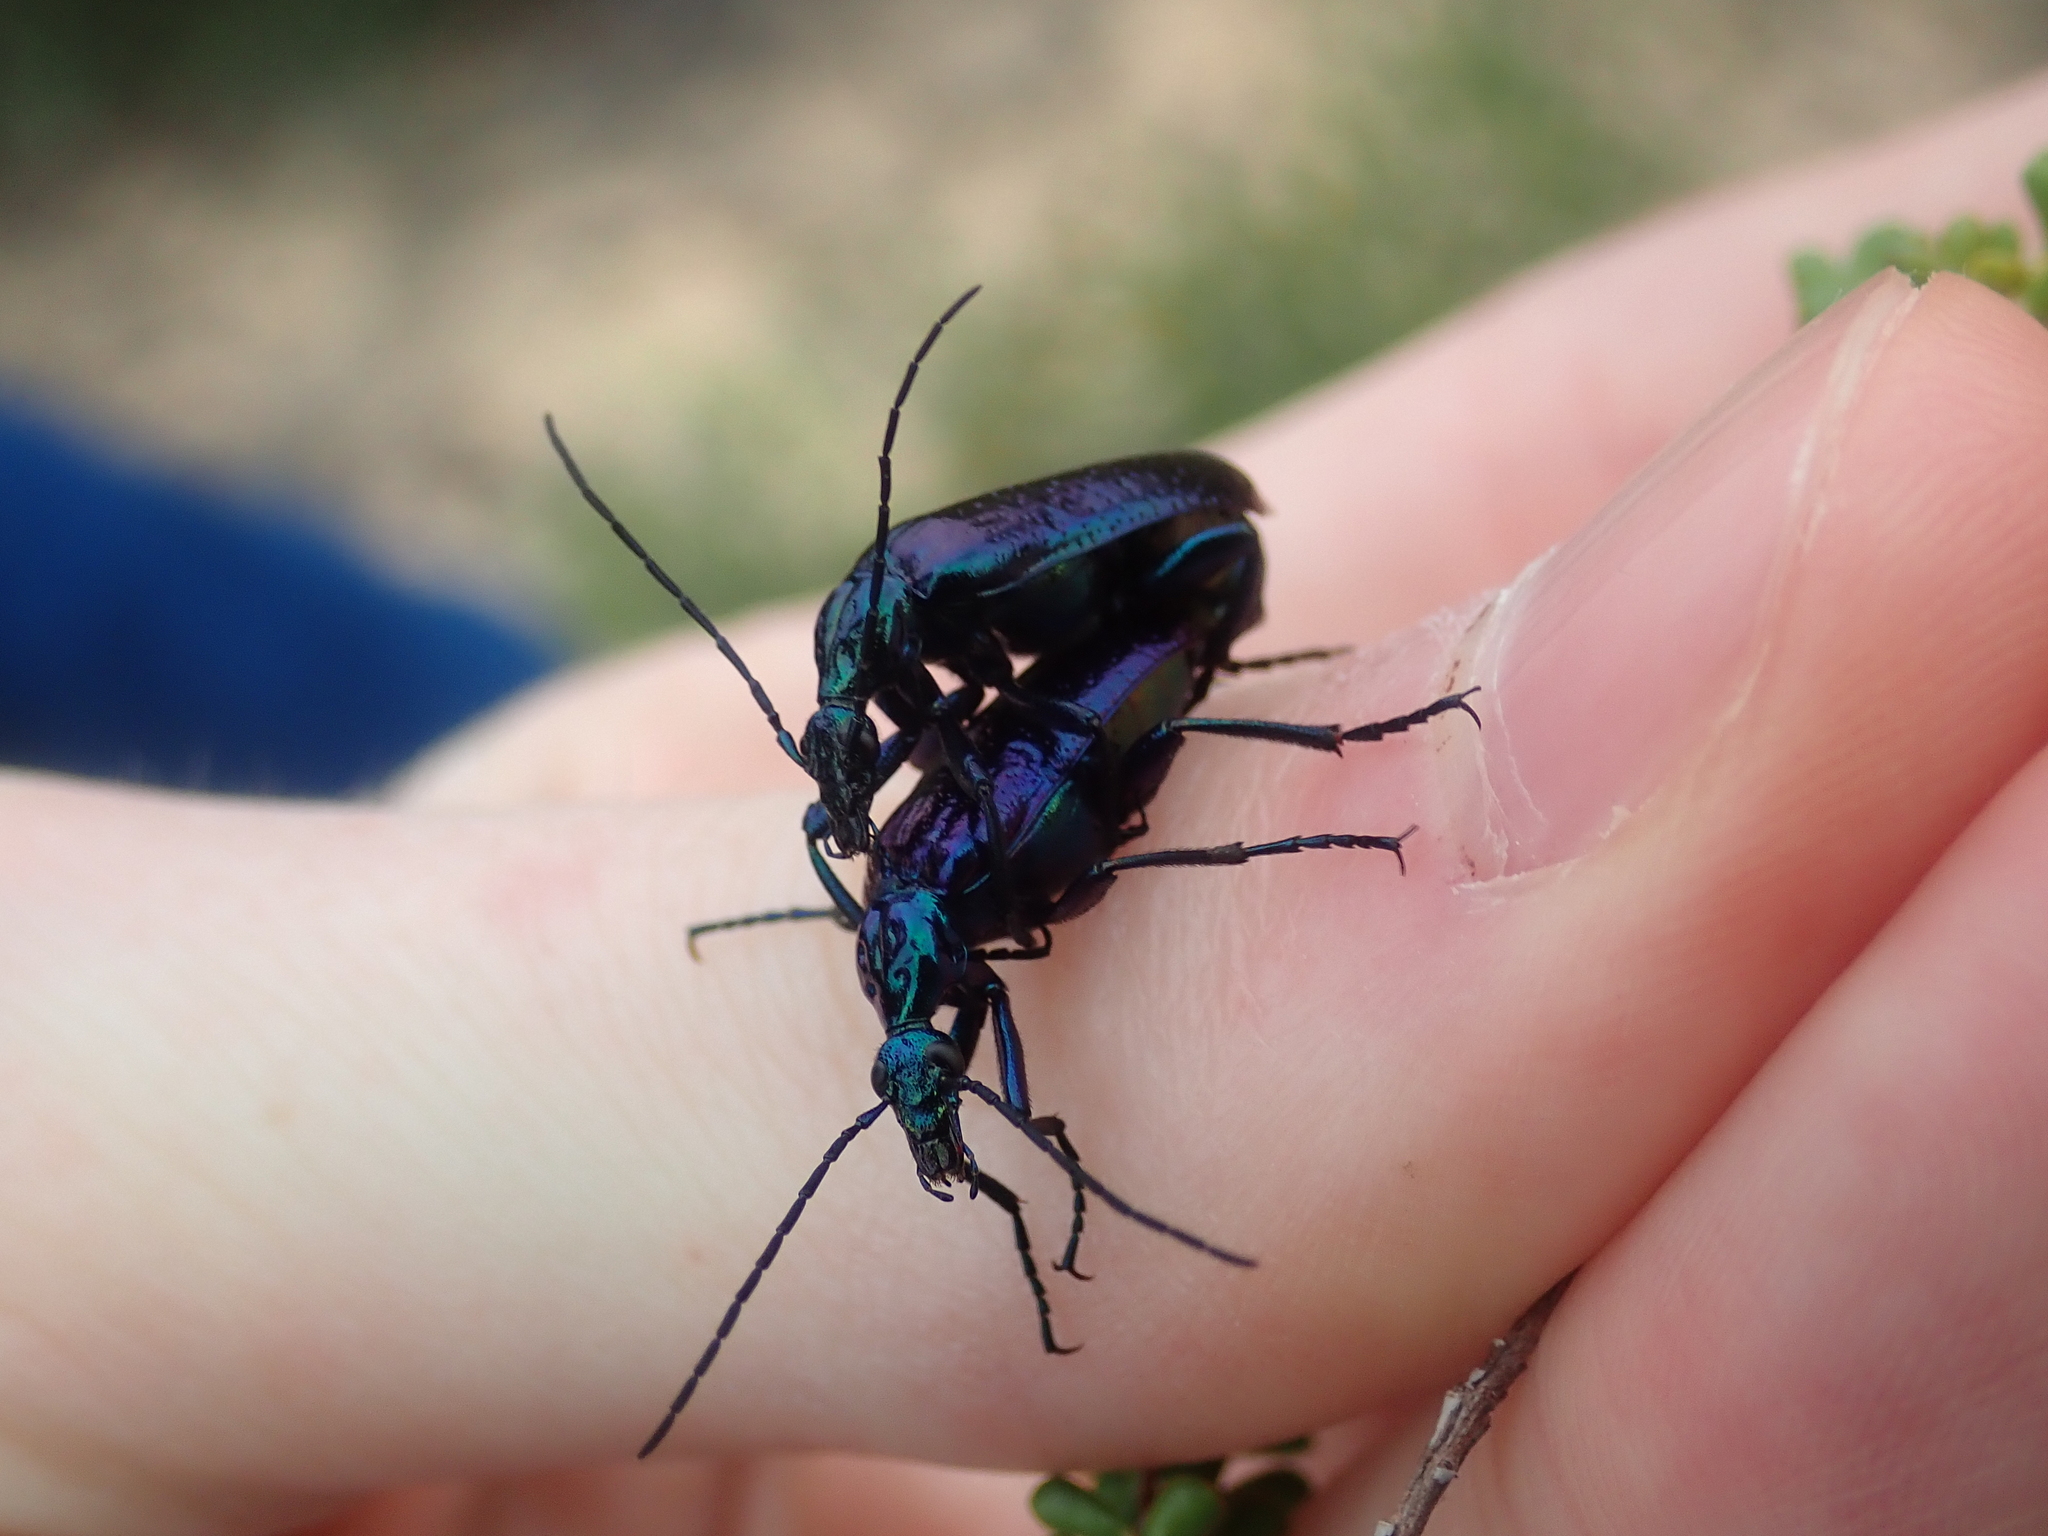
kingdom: Animalia
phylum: Arthropoda
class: Insecta
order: Coleoptera
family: Meloidae
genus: Palaestra
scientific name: Palaestra
